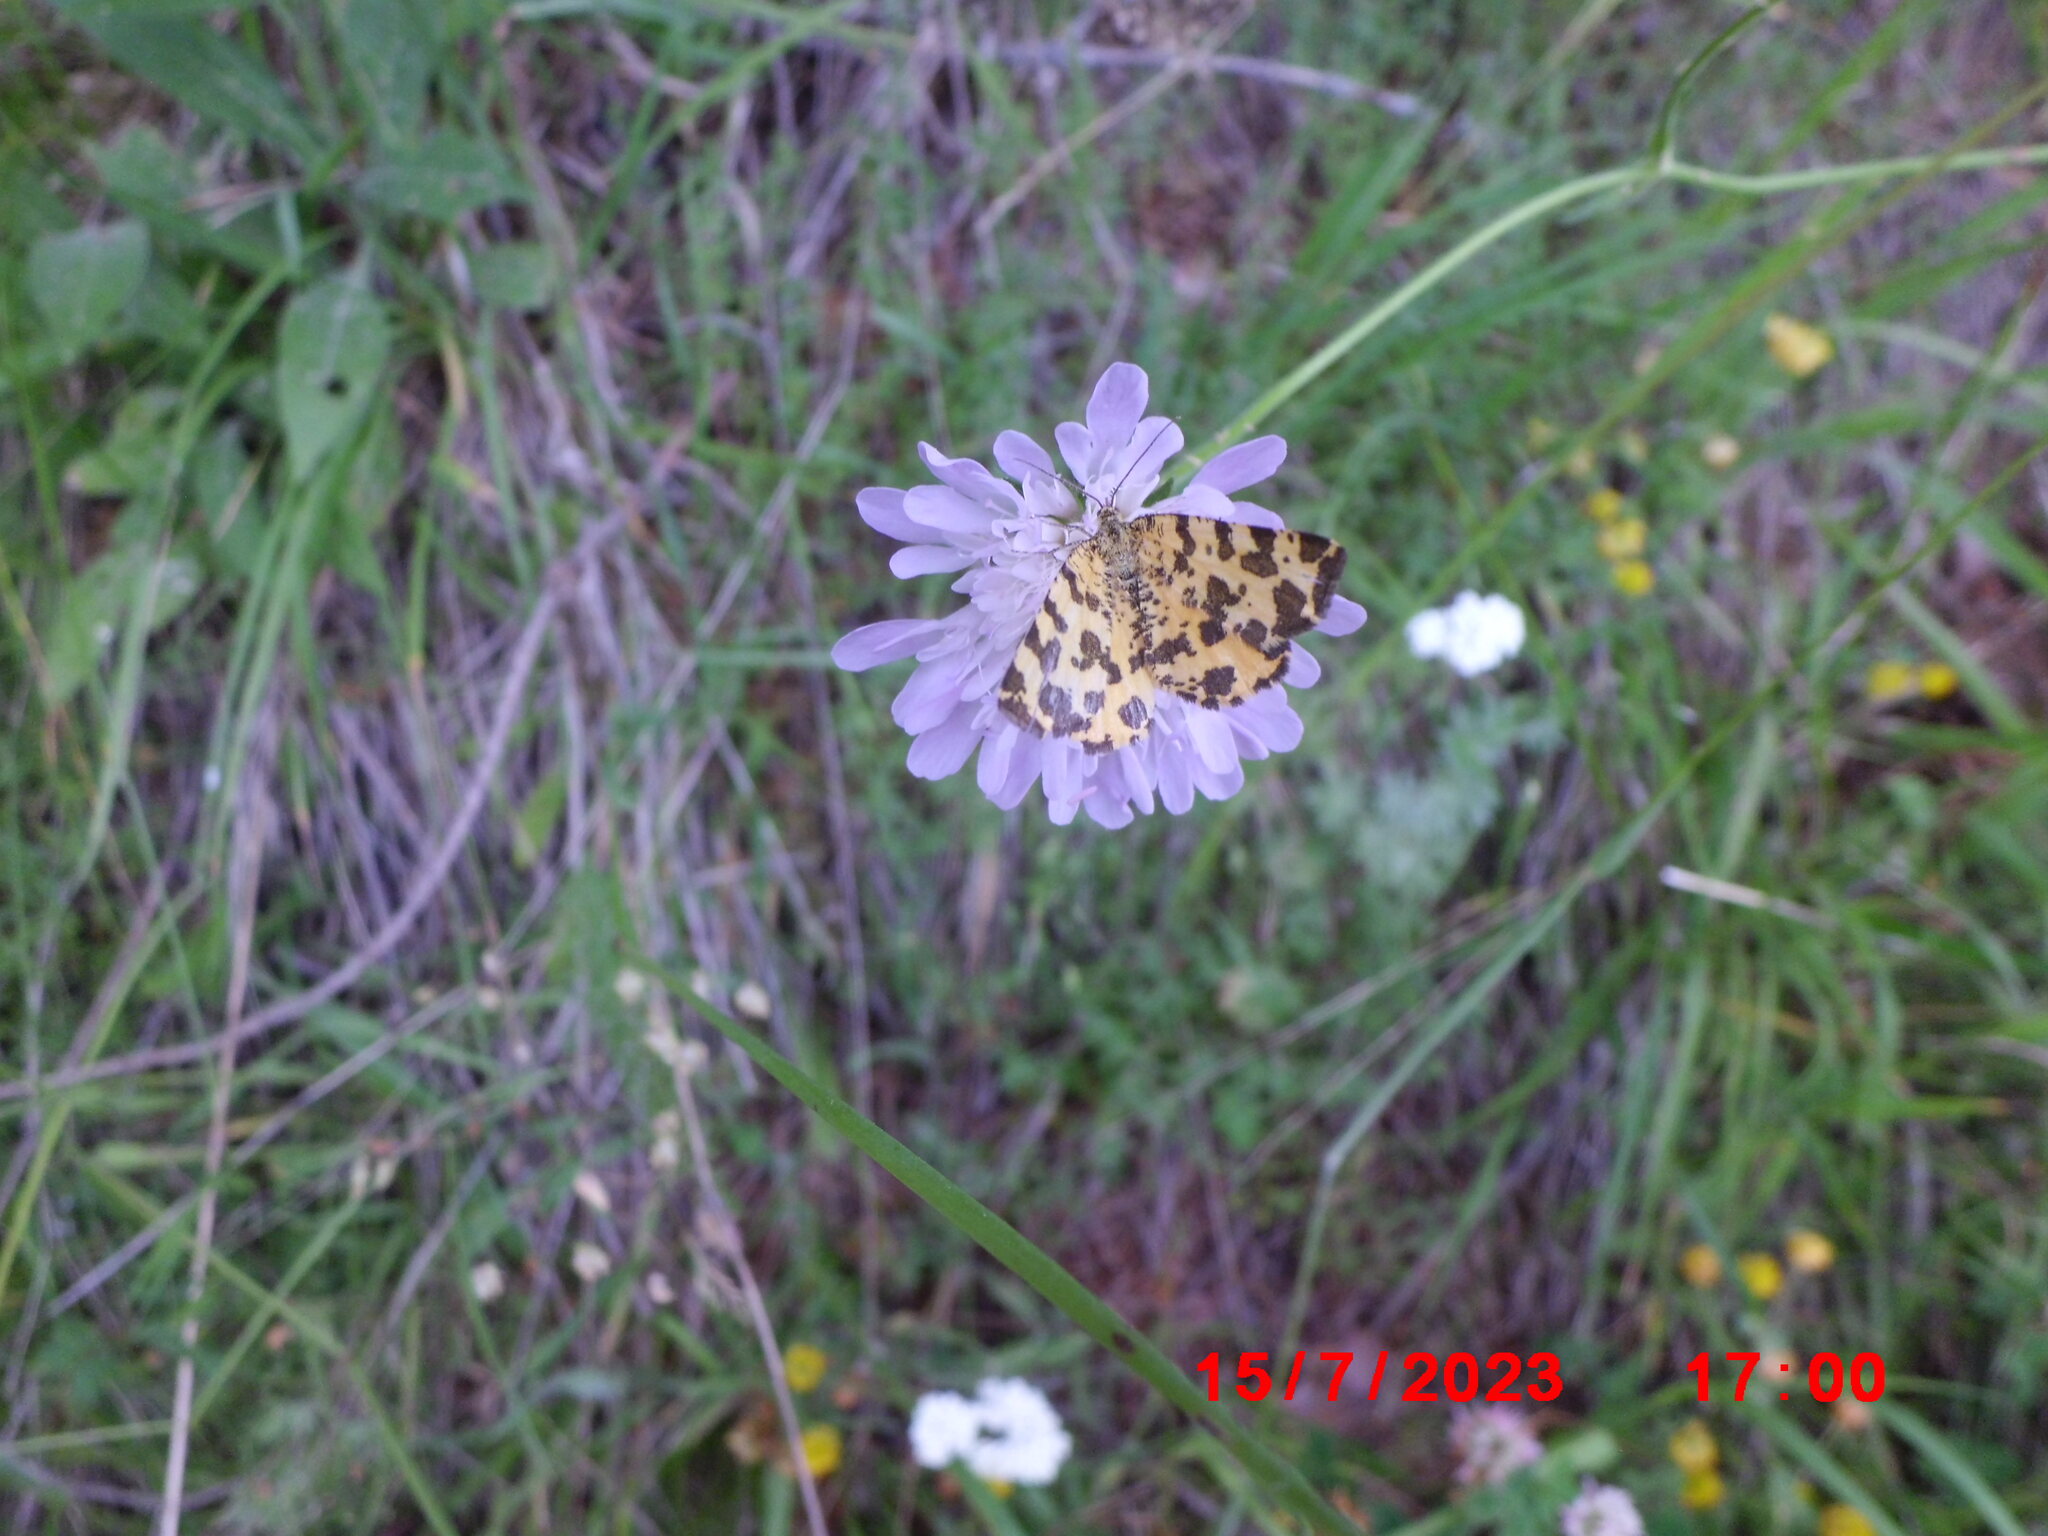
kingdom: Animalia
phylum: Arthropoda
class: Insecta
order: Lepidoptera
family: Geometridae
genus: Pseudopanthera
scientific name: Pseudopanthera macularia
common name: Speckled yellow
